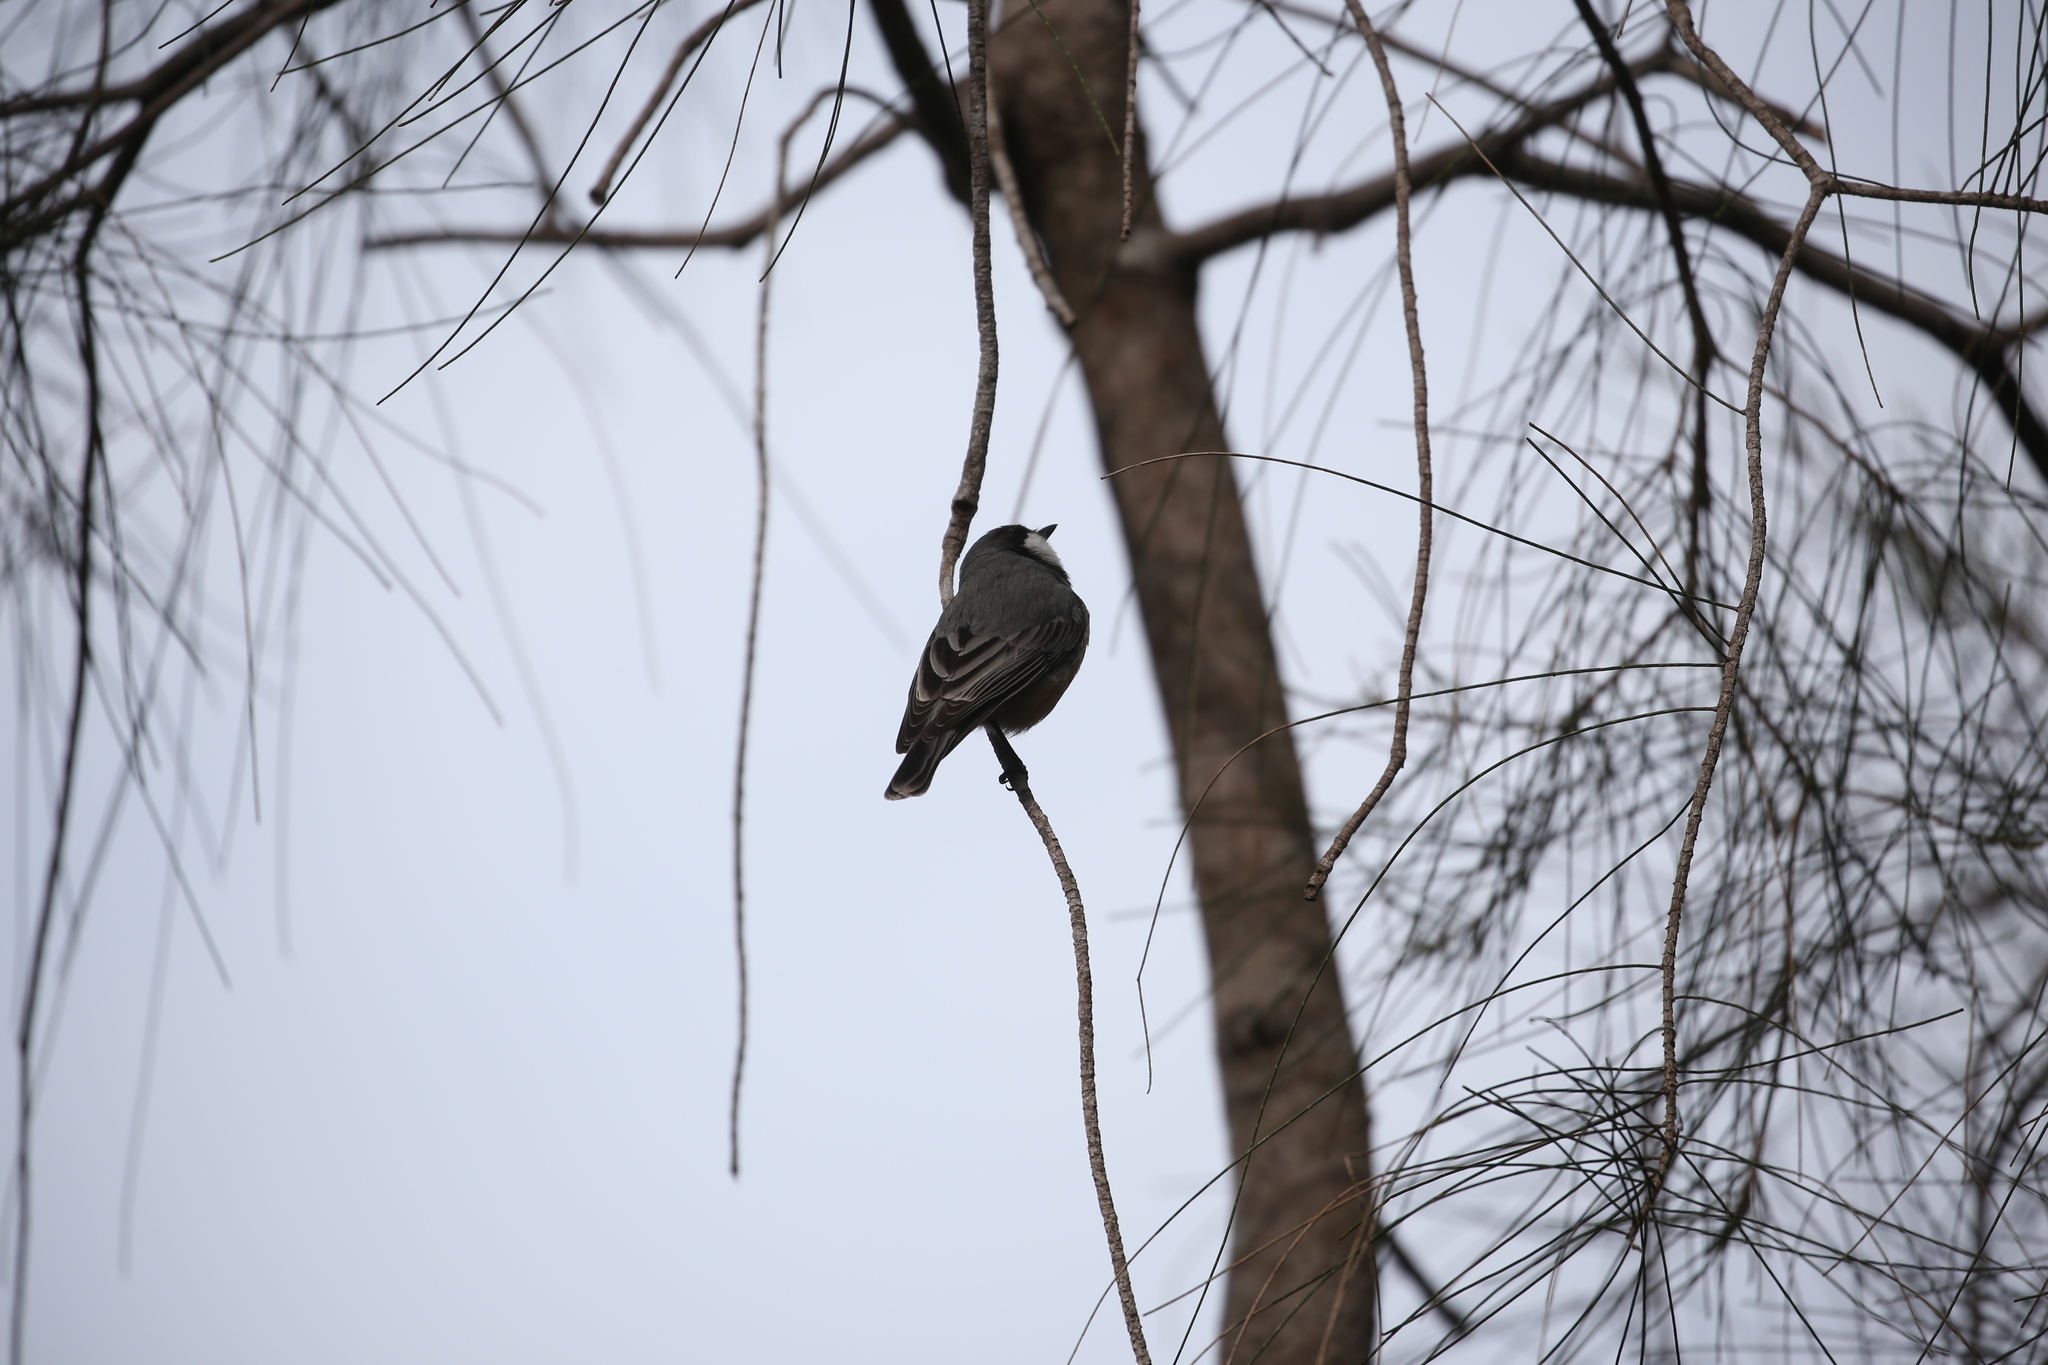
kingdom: Animalia
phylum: Chordata
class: Aves
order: Passeriformes
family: Pachycephalidae
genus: Pachycephala
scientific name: Pachycephala rufiventris
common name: Rufous whistler
